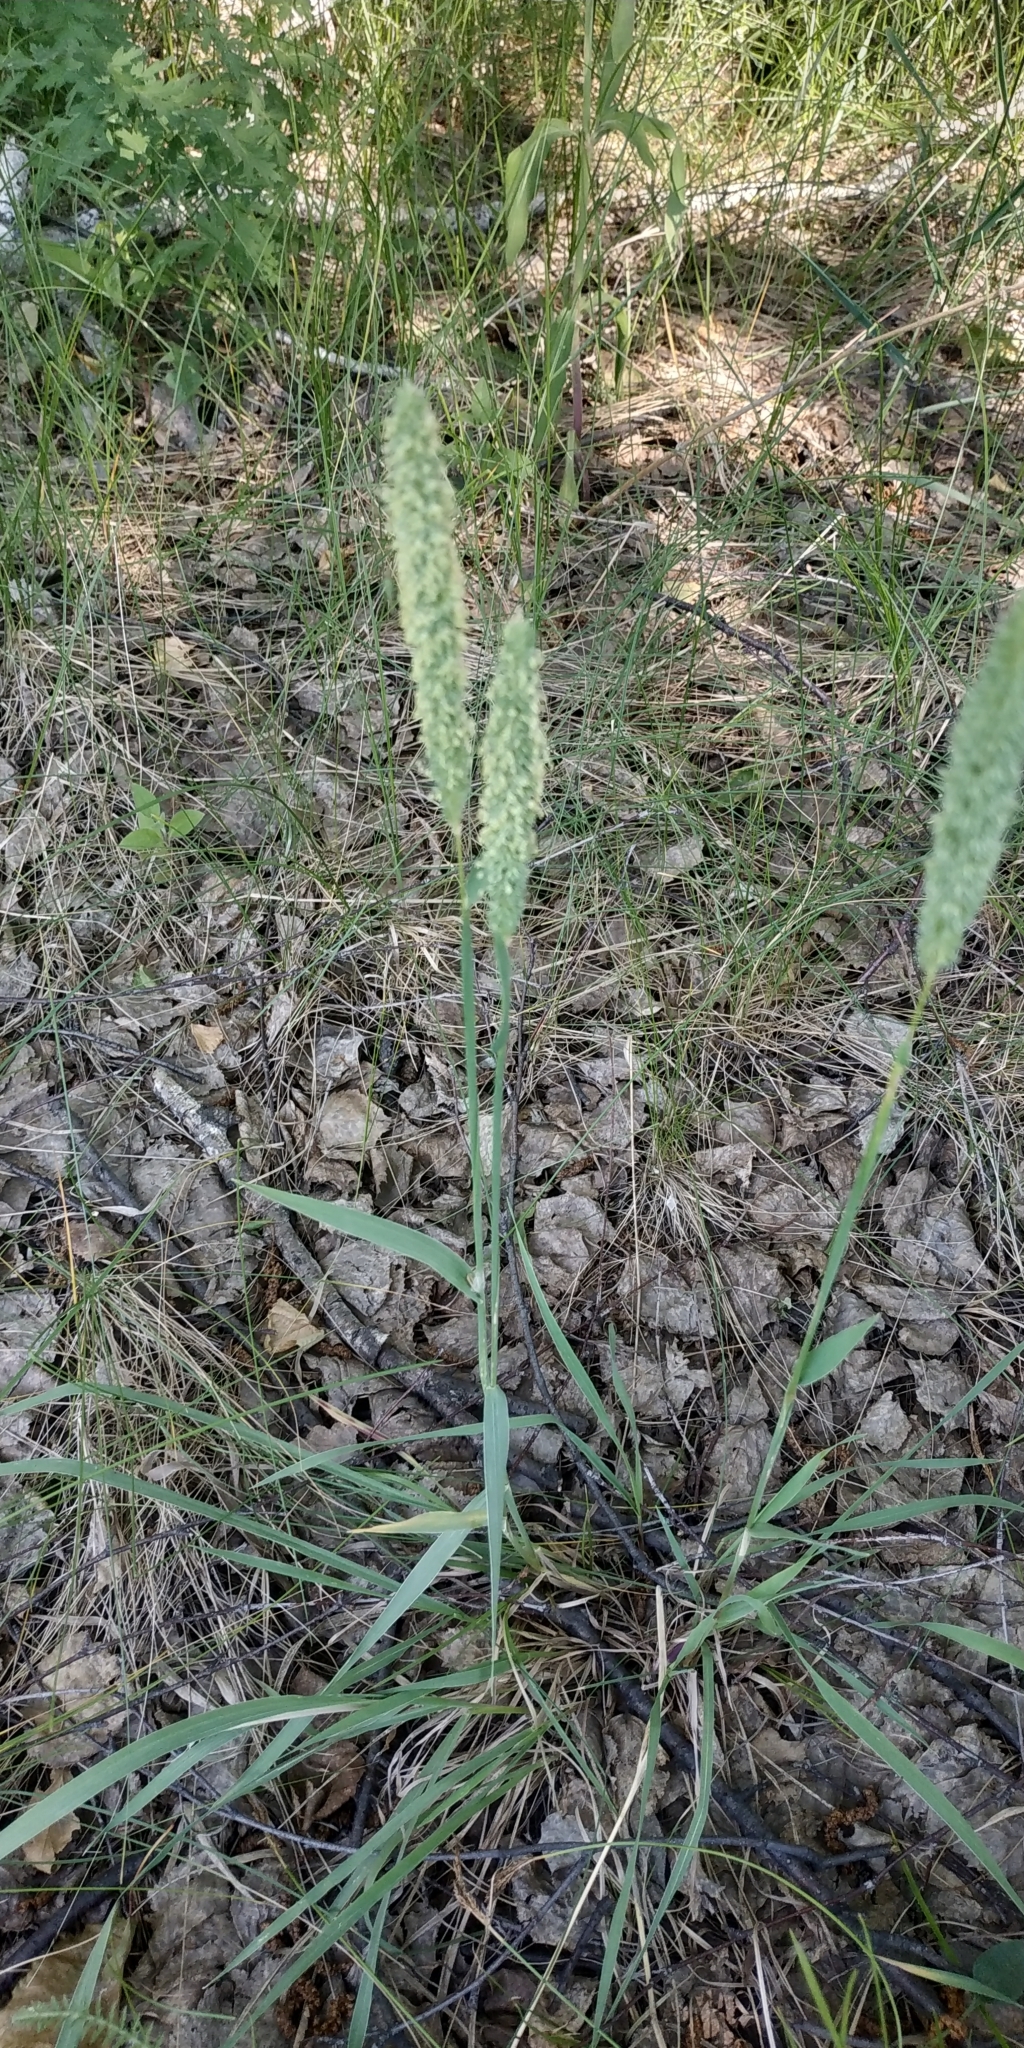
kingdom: Plantae
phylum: Tracheophyta
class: Liliopsida
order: Poales
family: Poaceae
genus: Alopecurus
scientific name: Alopecurus pratensis
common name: Meadow foxtail
